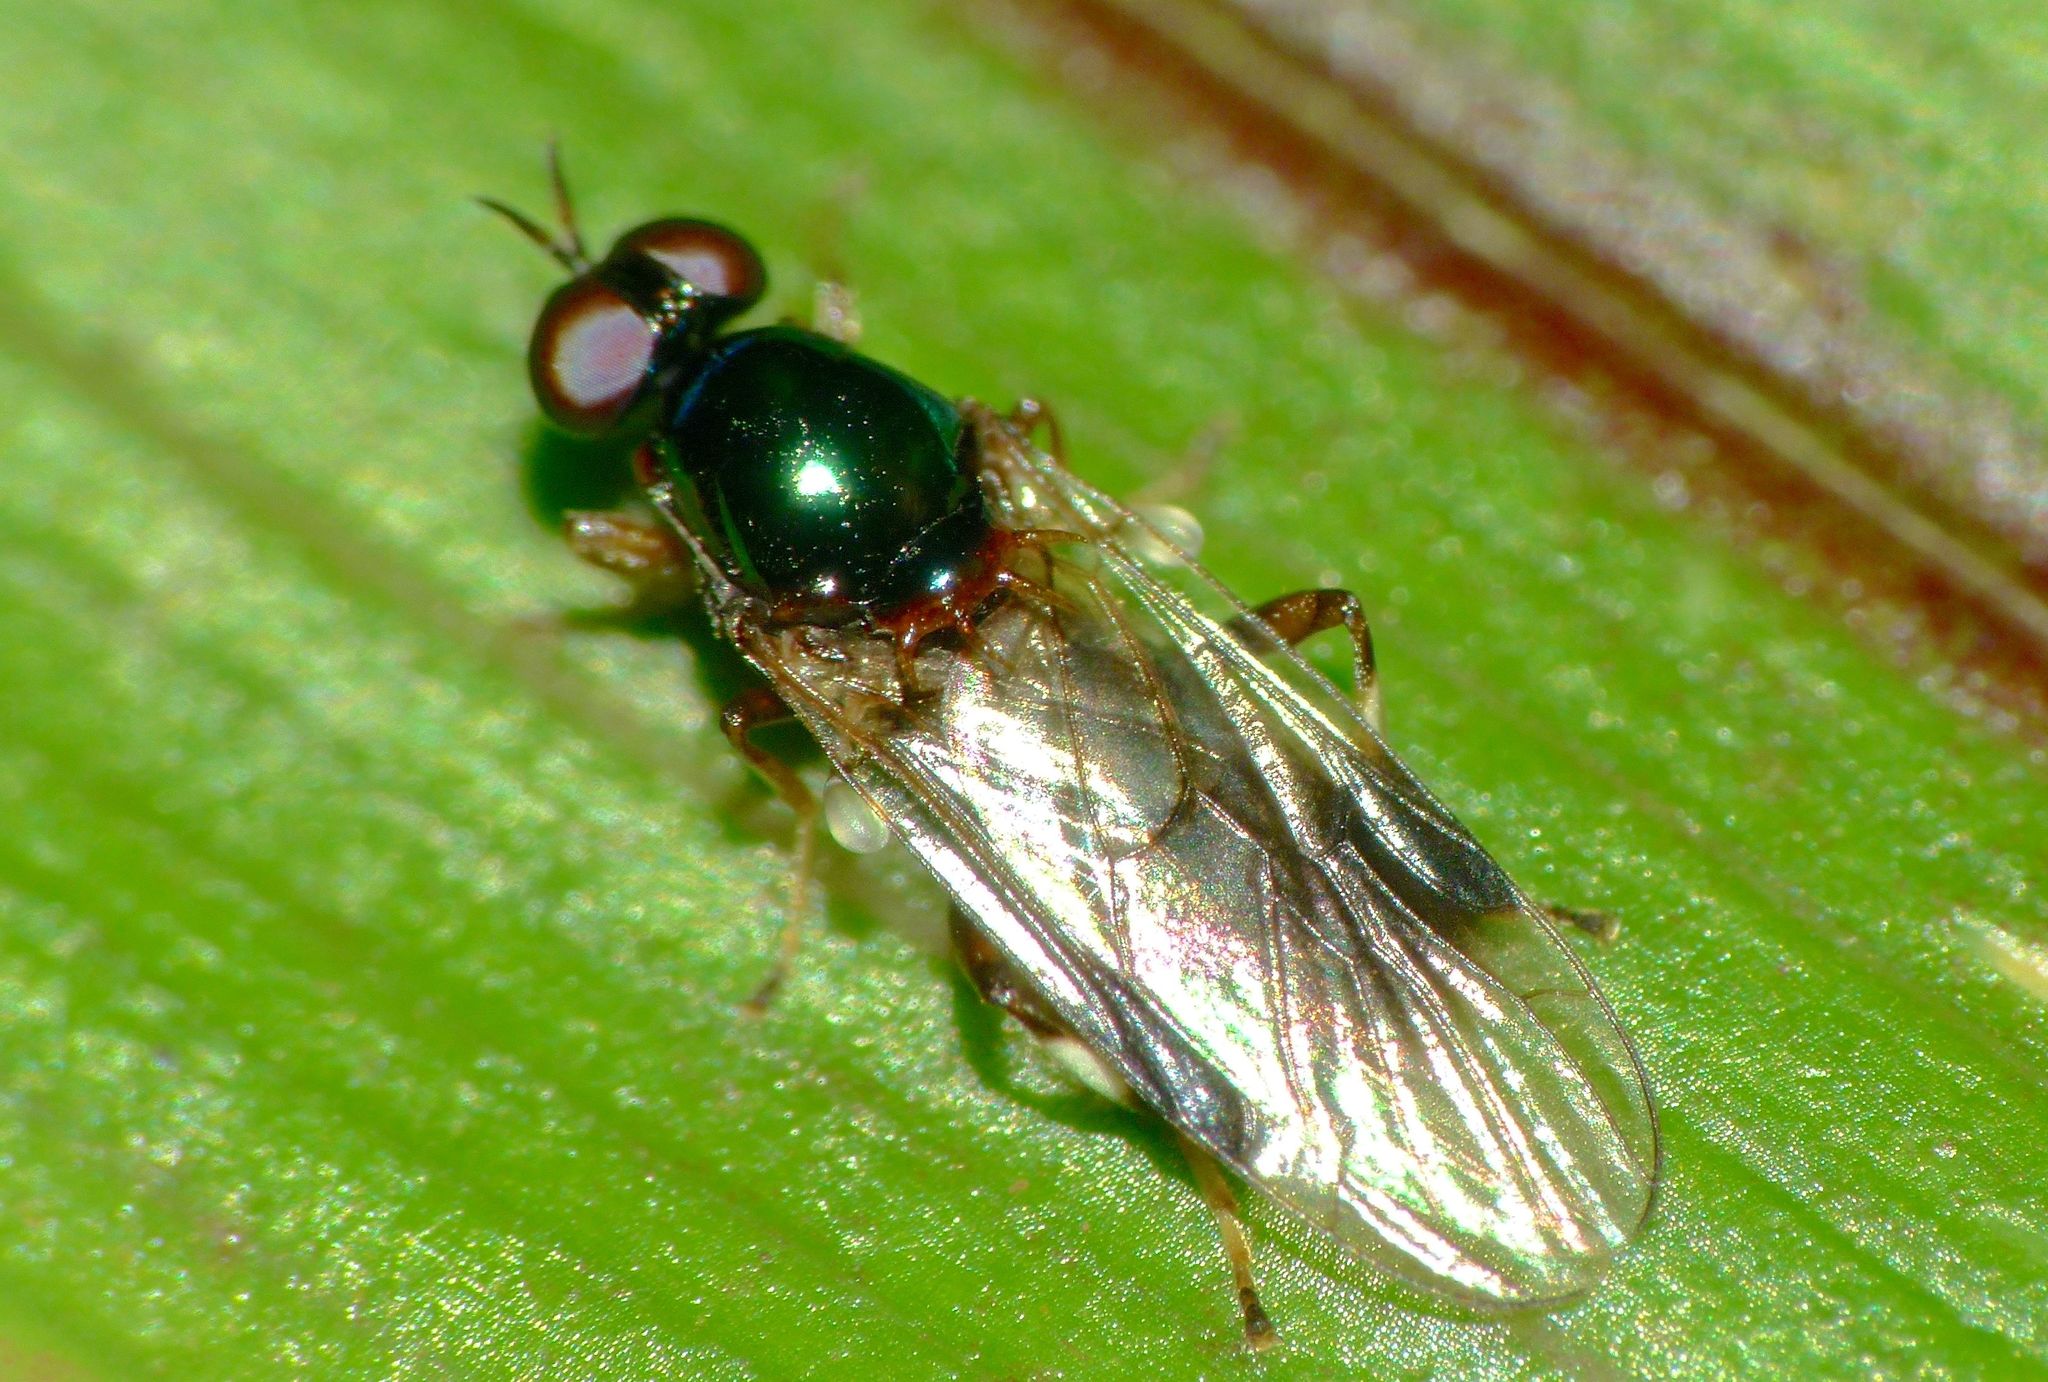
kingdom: Animalia
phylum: Arthropoda
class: Insecta
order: Diptera
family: Stratiomyidae
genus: Zealandoberis
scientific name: Zealandoberis lacuans
